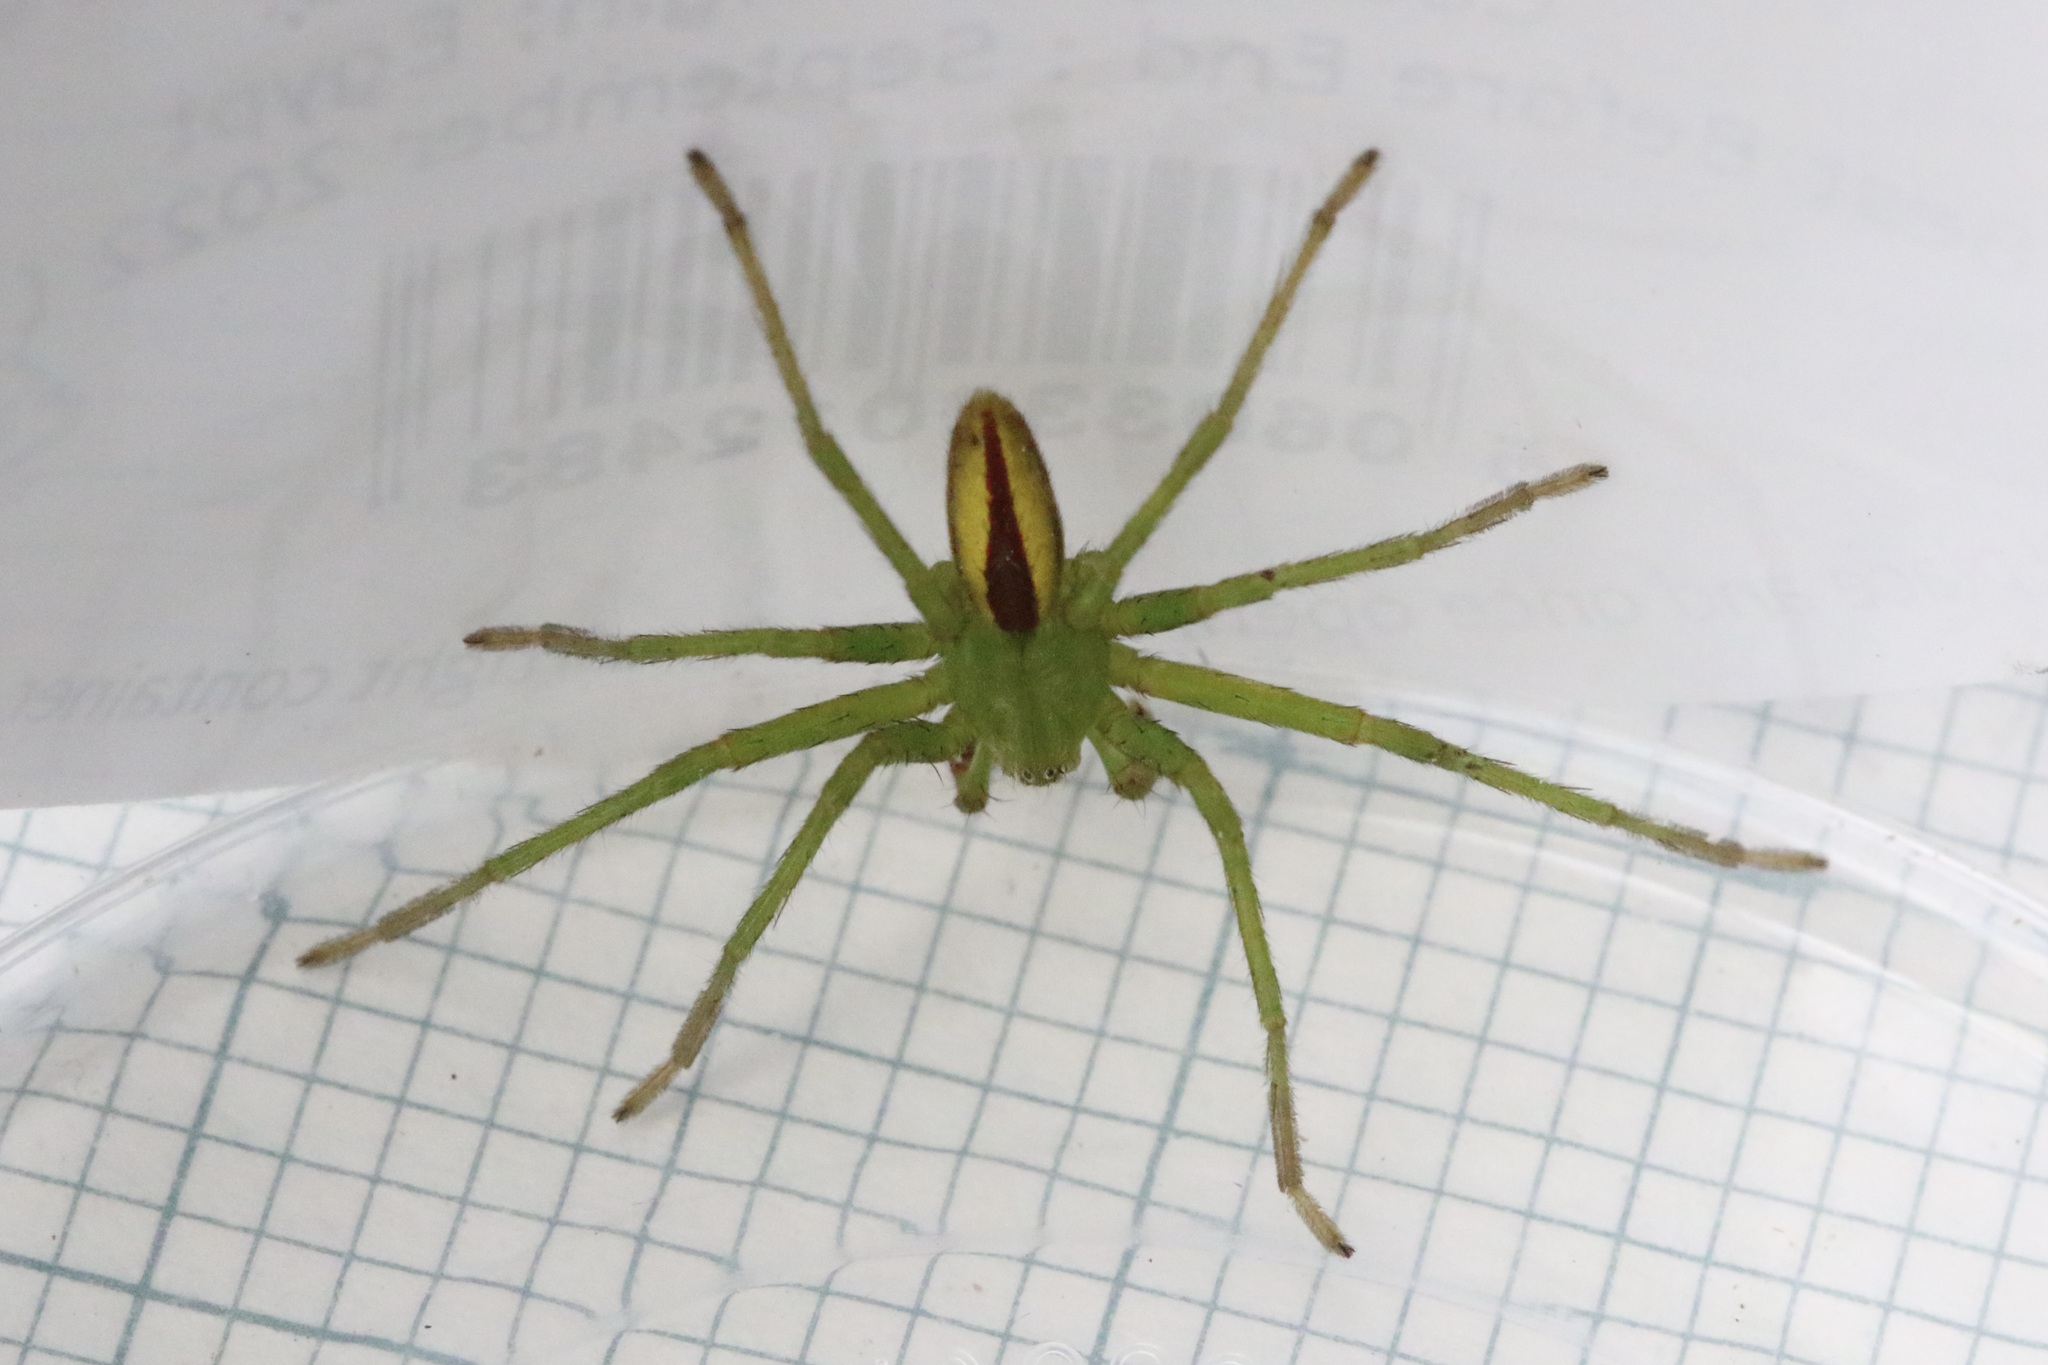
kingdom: Animalia
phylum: Arthropoda
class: Arachnida
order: Araneae
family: Sparassidae
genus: Micrommata
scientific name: Micrommata virescens
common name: Green spider
